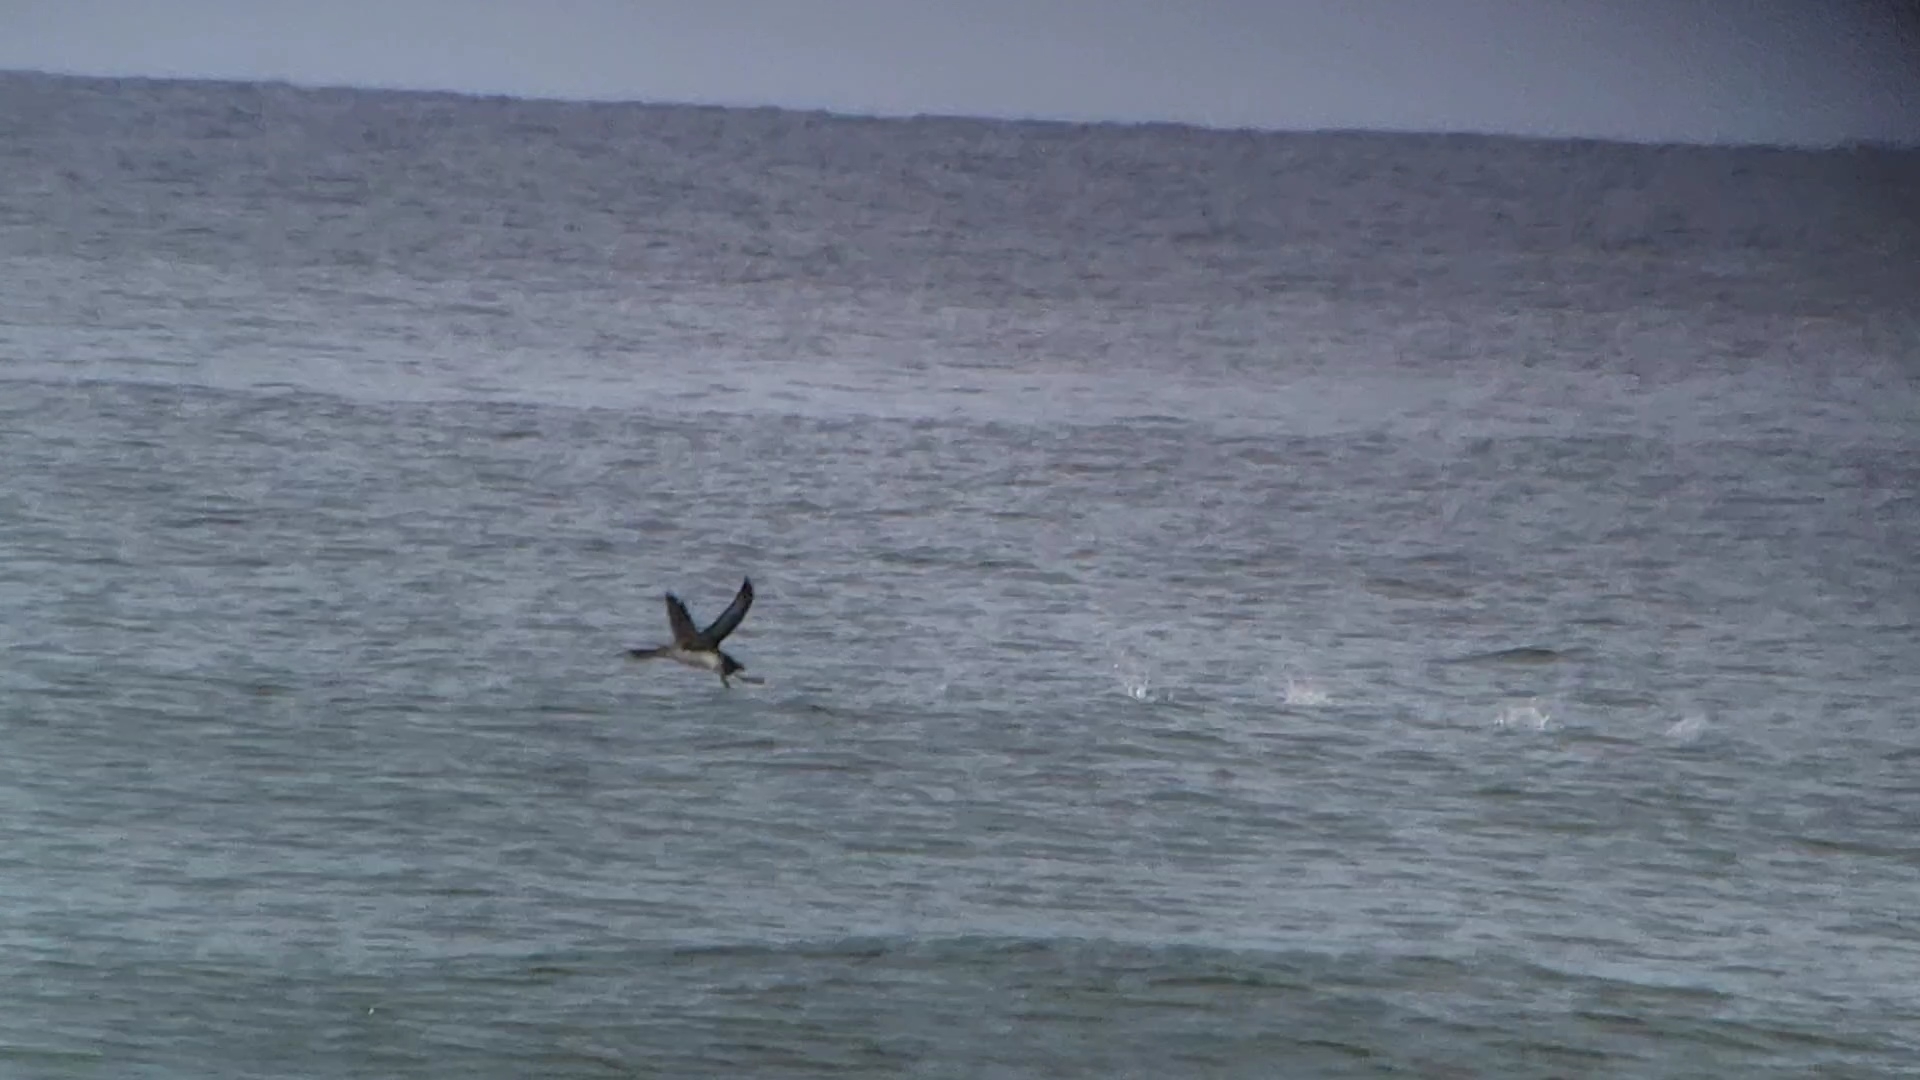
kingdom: Animalia
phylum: Chordata
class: Aves
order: Gaviiformes
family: Gaviidae
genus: Gavia
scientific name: Gavia stellata
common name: Red-throated loon
